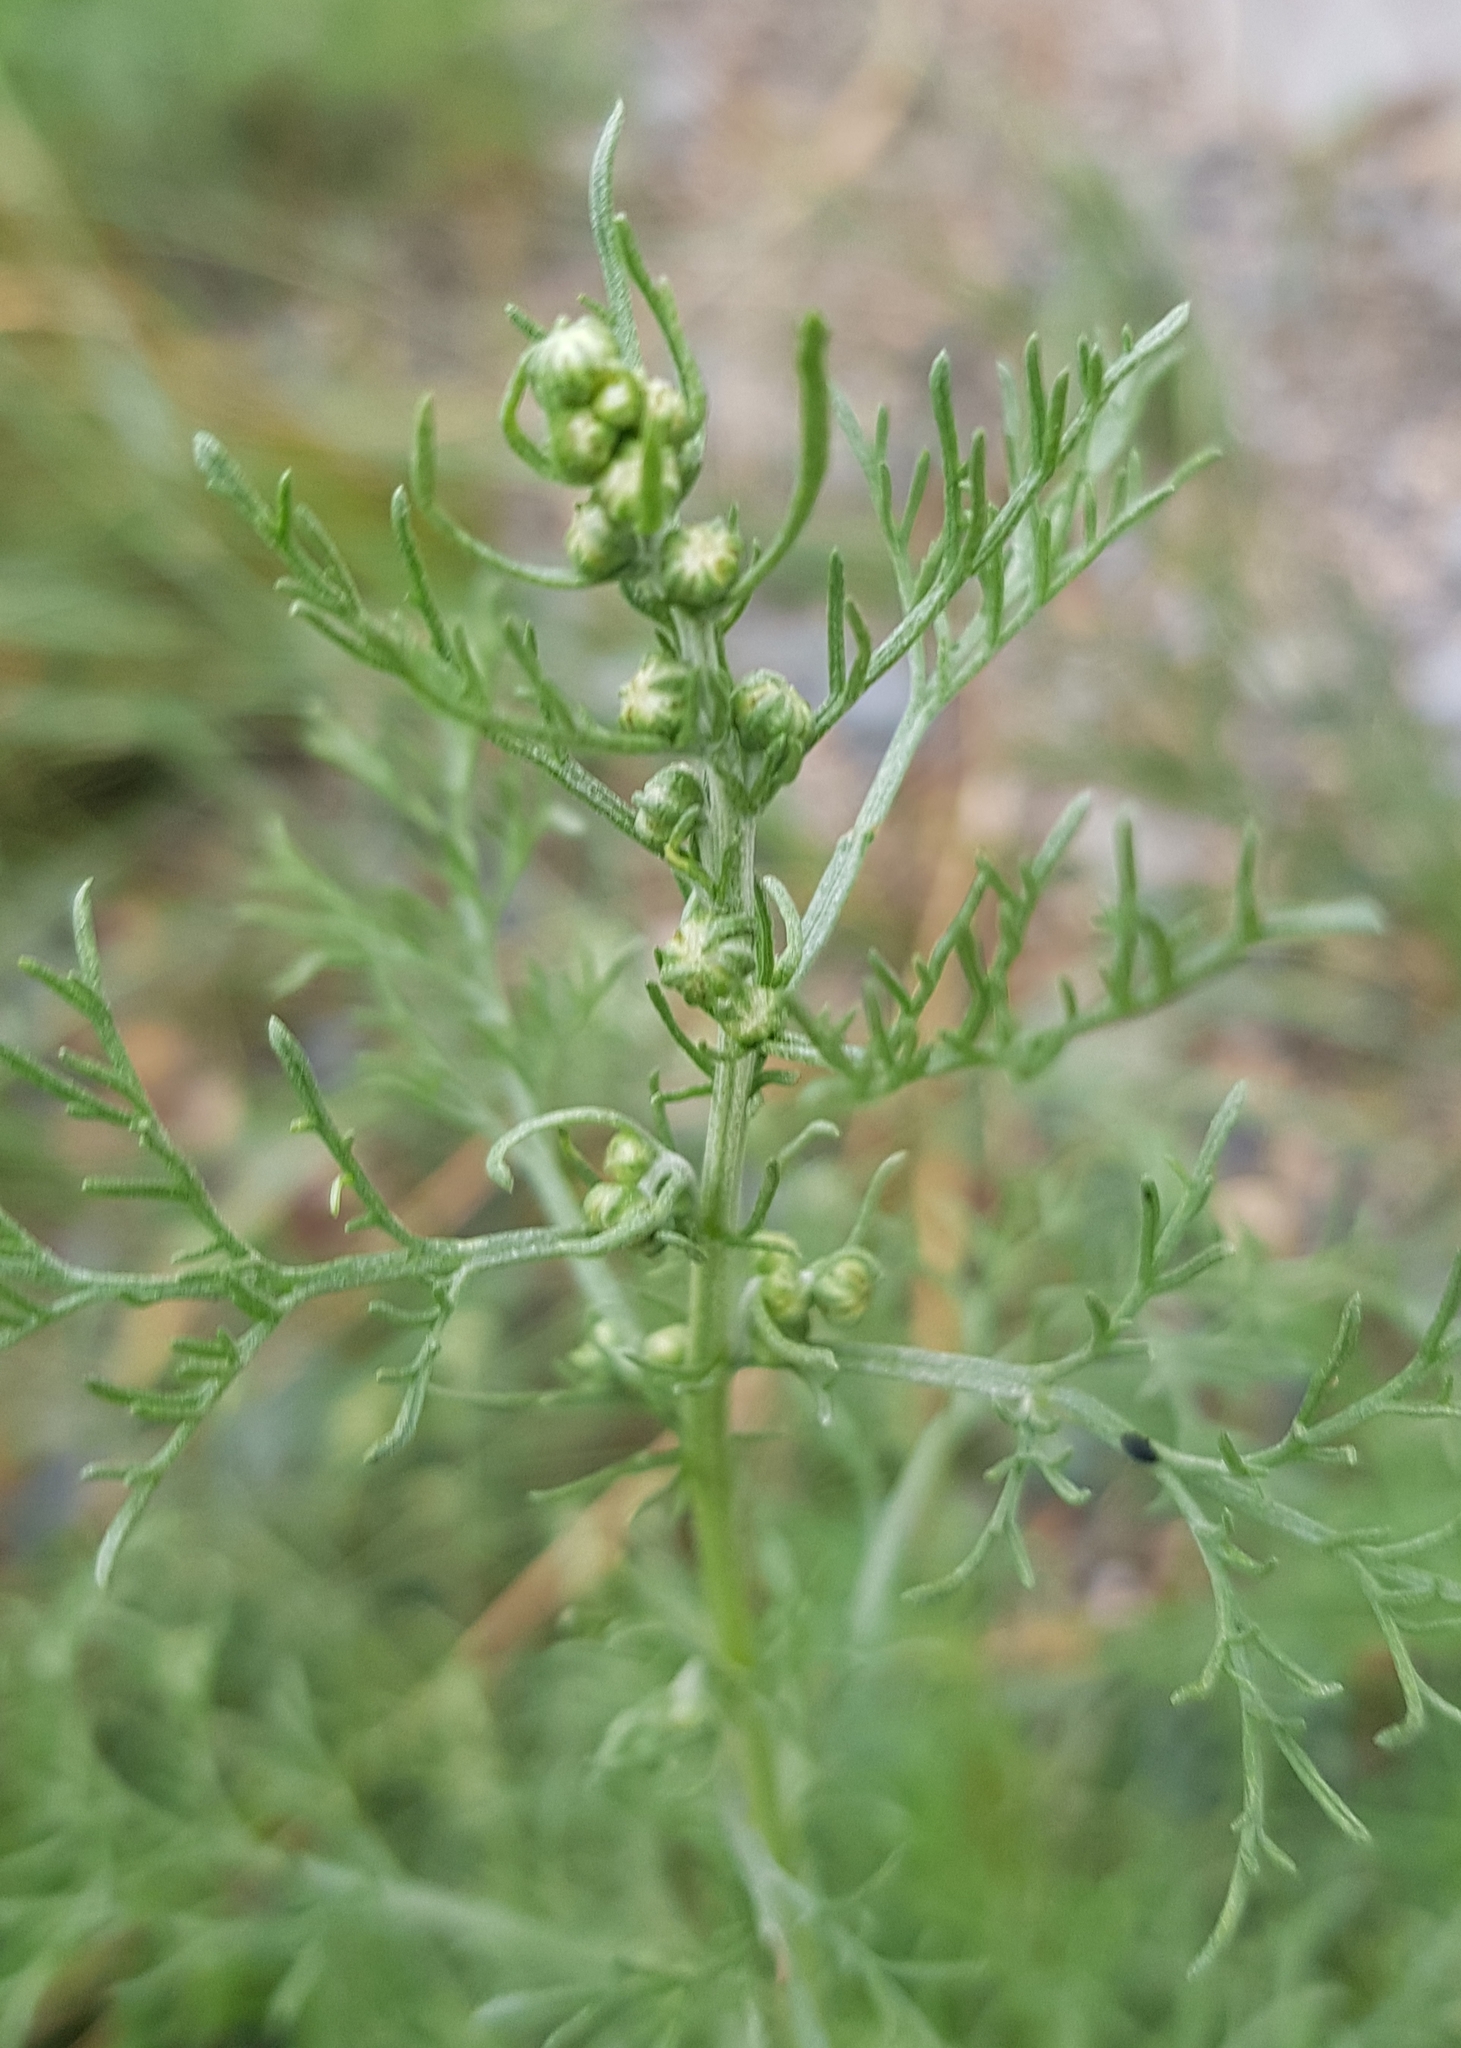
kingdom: Plantae
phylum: Tracheophyta
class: Magnoliopsida
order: Asterales
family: Asteraceae
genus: Artemisia
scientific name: Artemisia sieversiana
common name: Sieversian wormwood
